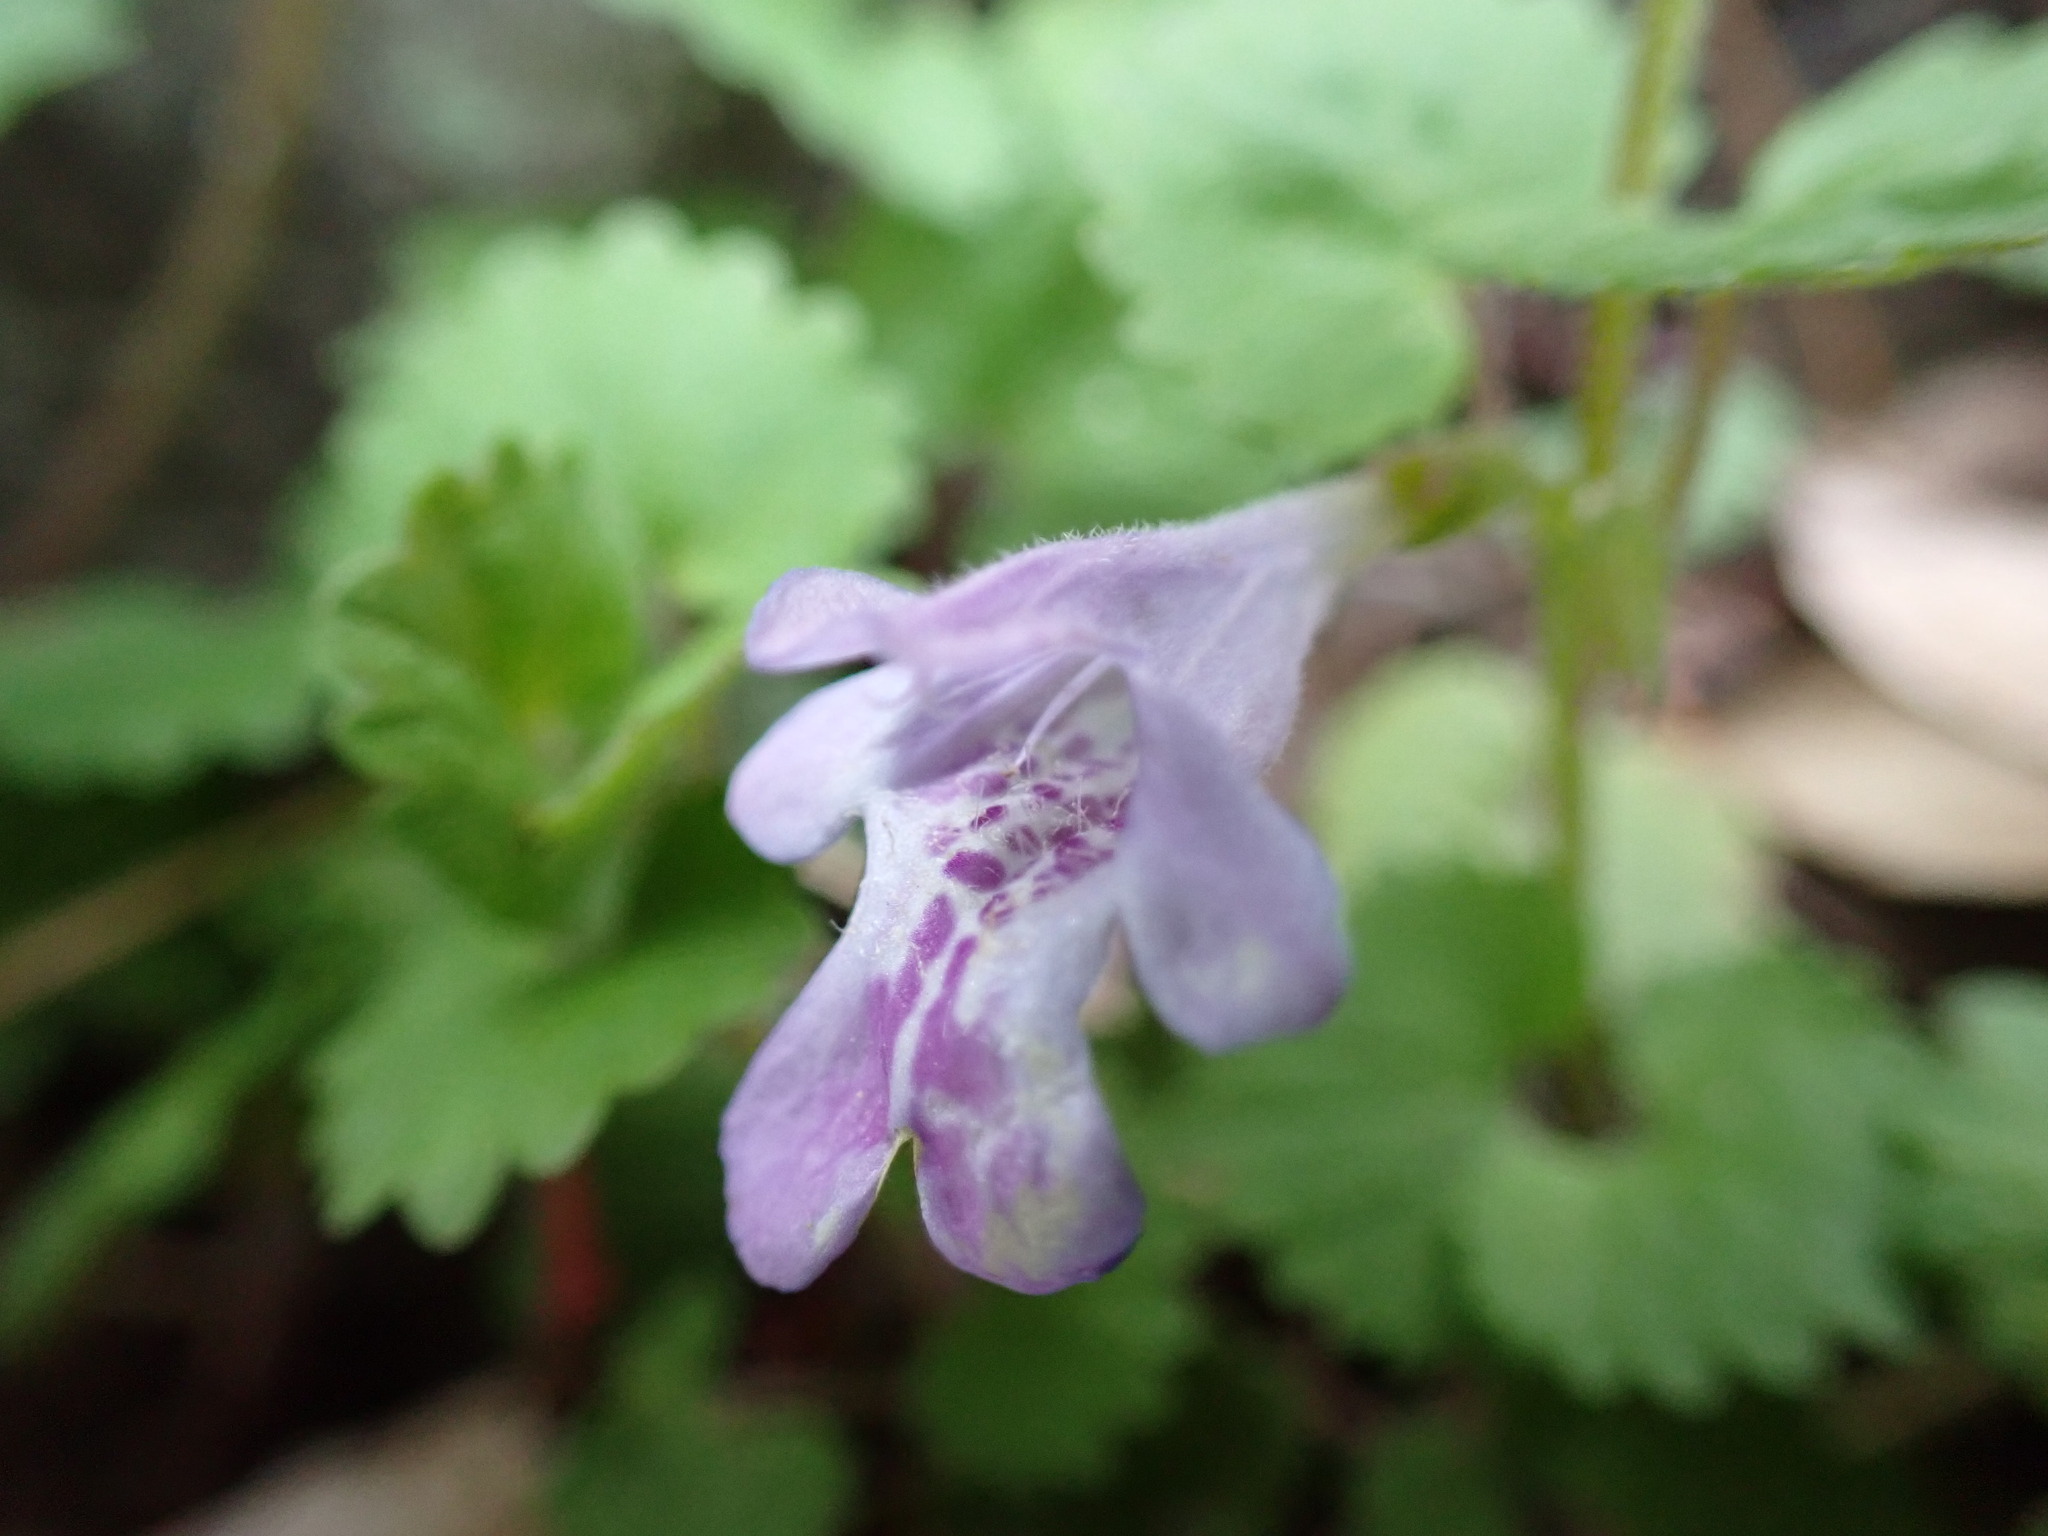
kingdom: Plantae
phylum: Tracheophyta
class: Magnoliopsida
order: Lamiales
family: Lamiaceae
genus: Glechoma
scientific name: Glechoma grandis
